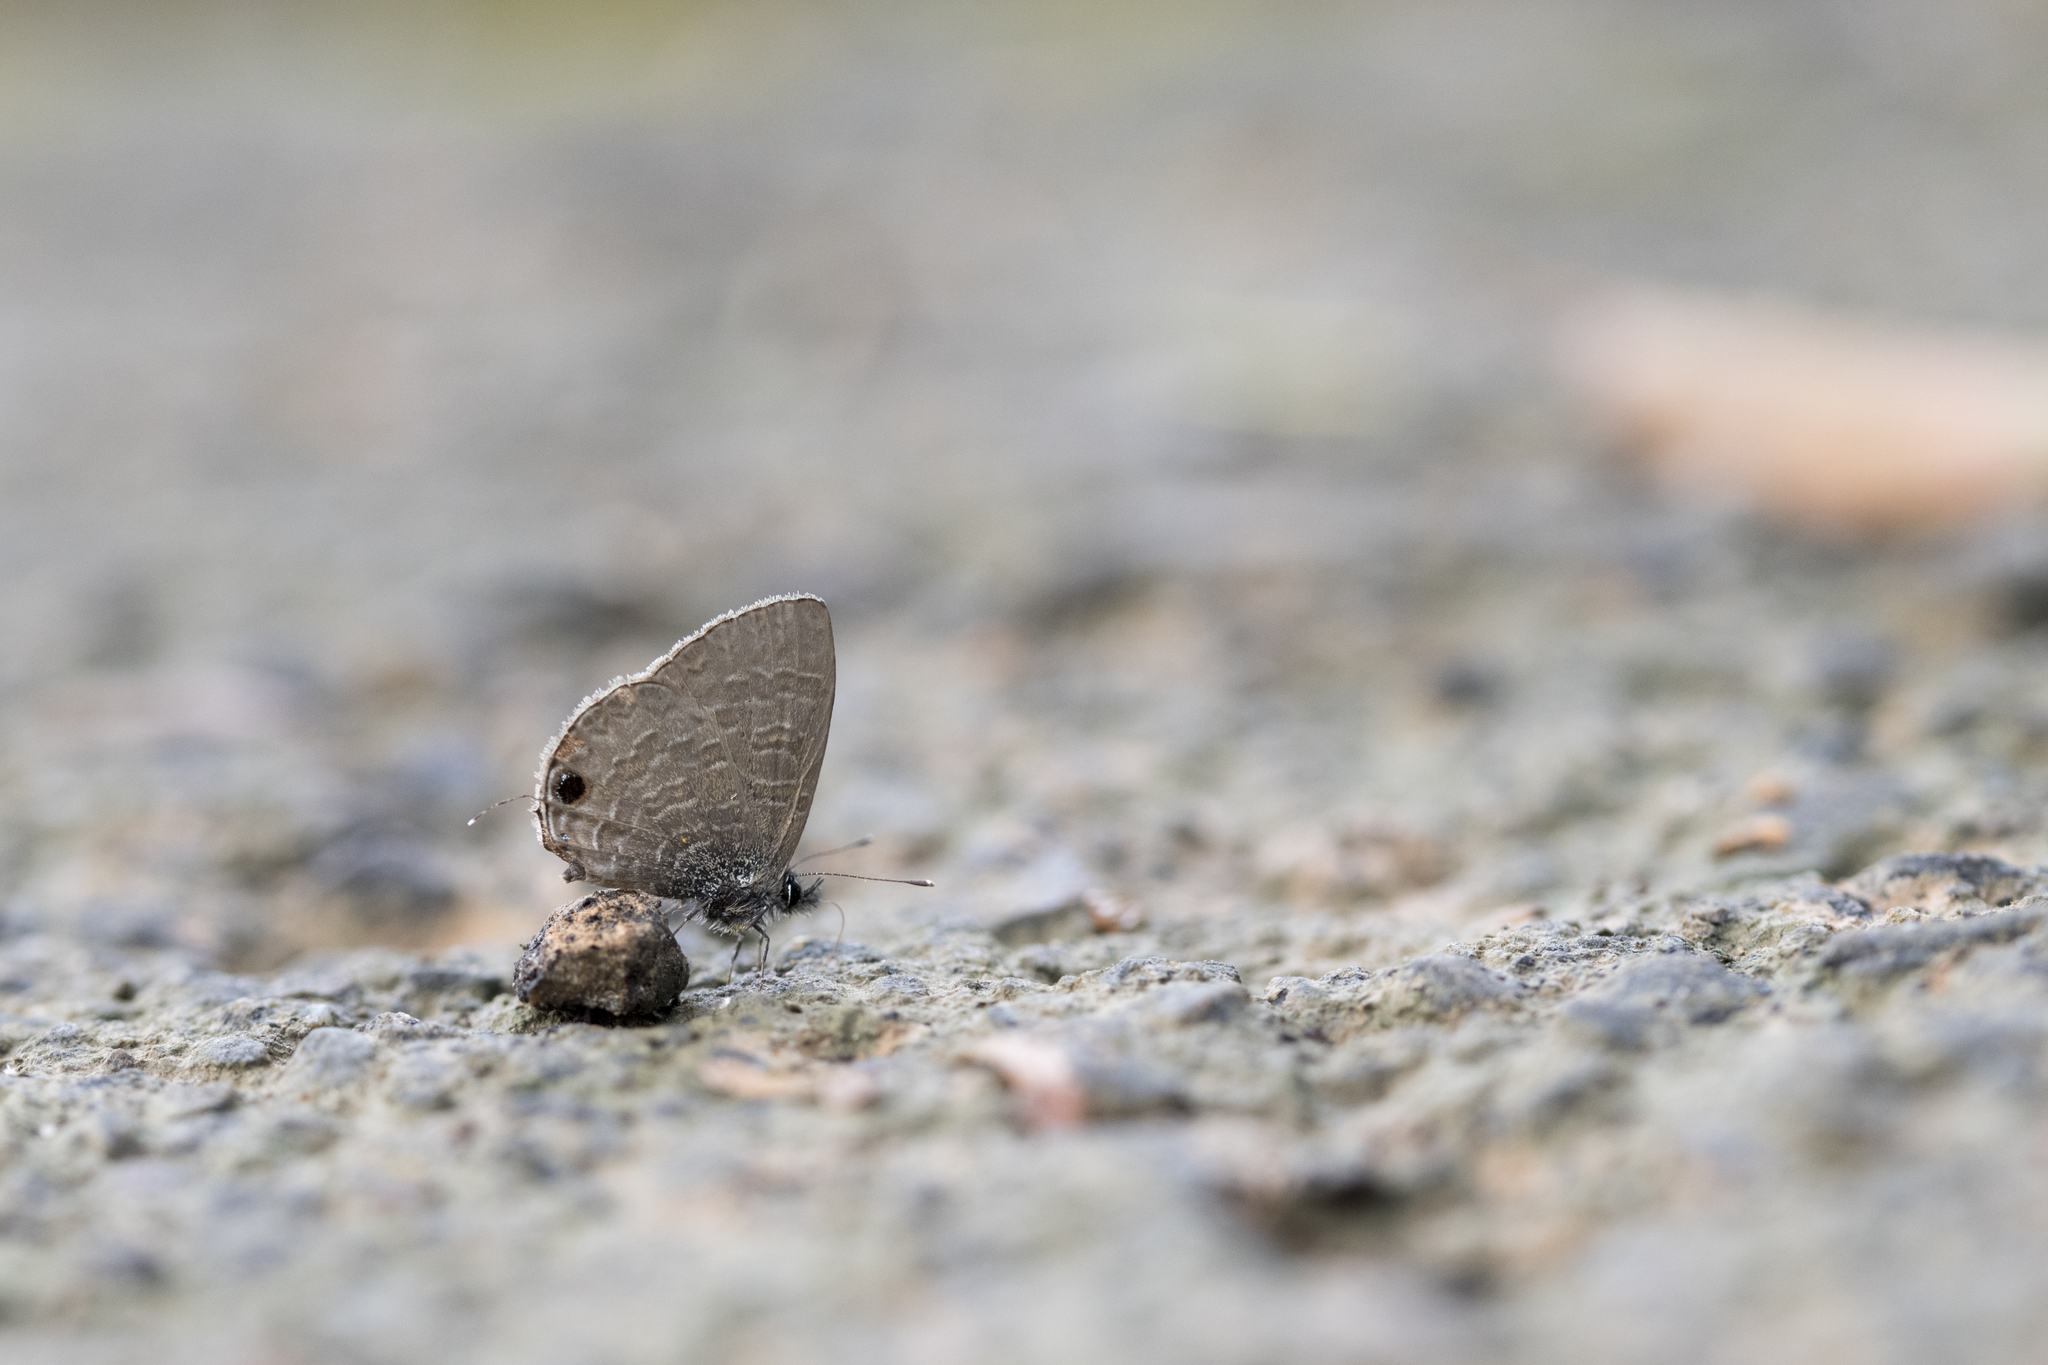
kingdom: Animalia
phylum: Arthropoda
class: Insecta
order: Lepidoptera
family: Lycaenidae
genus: Prosotas
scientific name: Prosotas nora
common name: Common line blue
